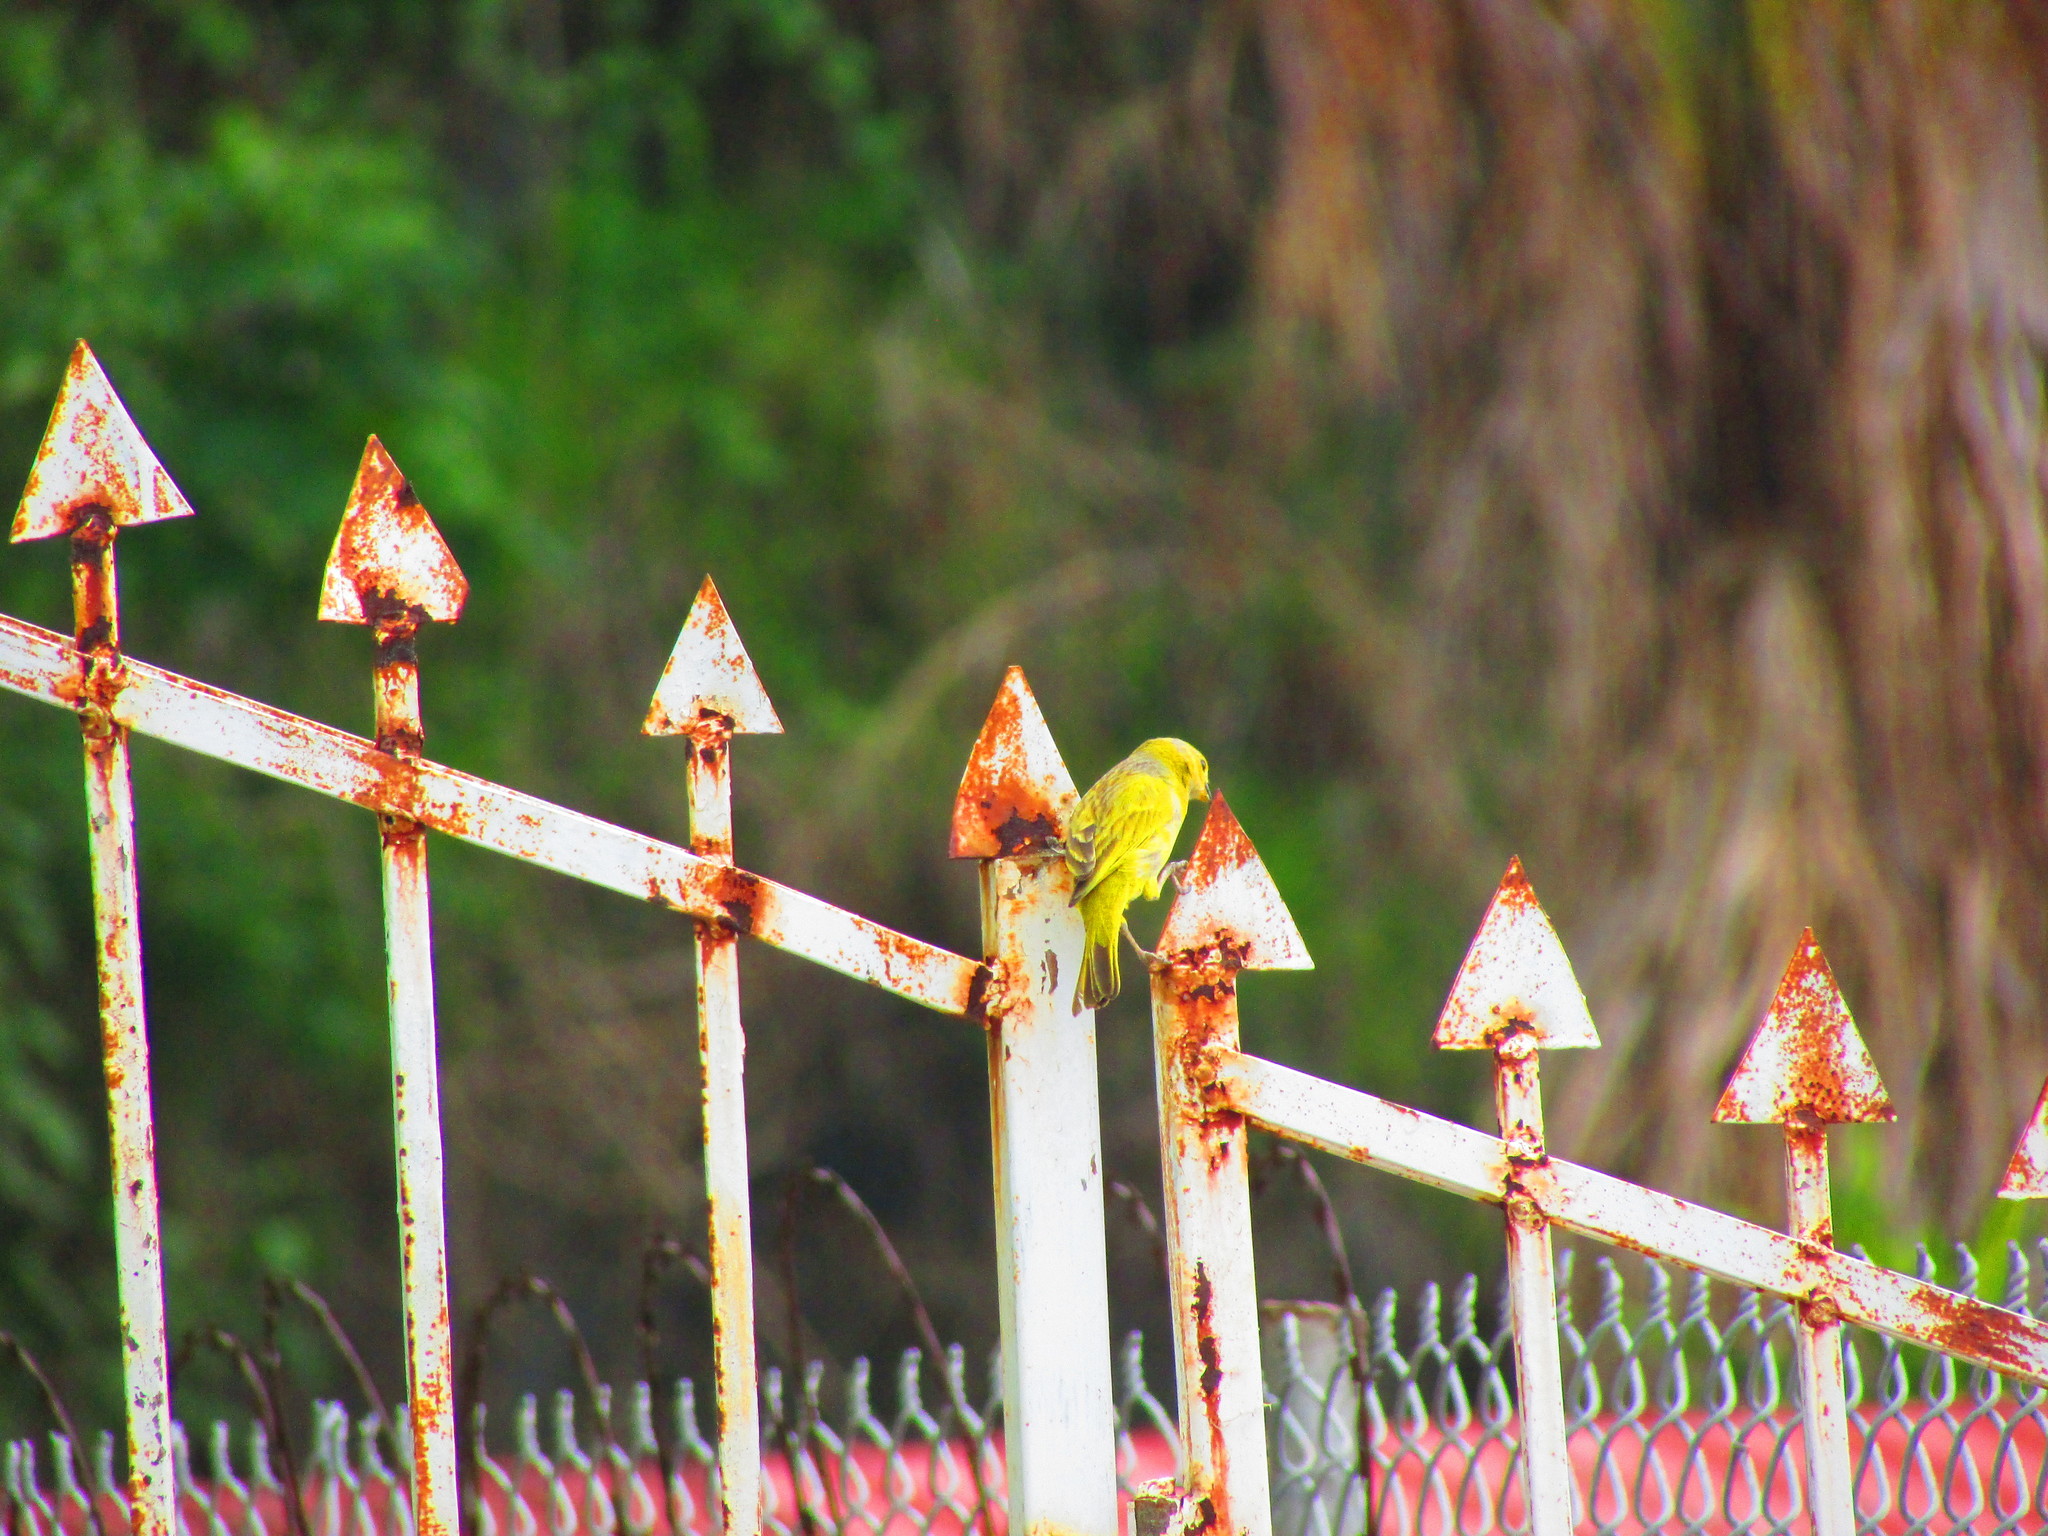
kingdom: Animalia
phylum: Chordata
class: Aves
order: Passeriformes
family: Thraupidae
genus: Sicalis
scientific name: Sicalis flaveola
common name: Saffron finch
